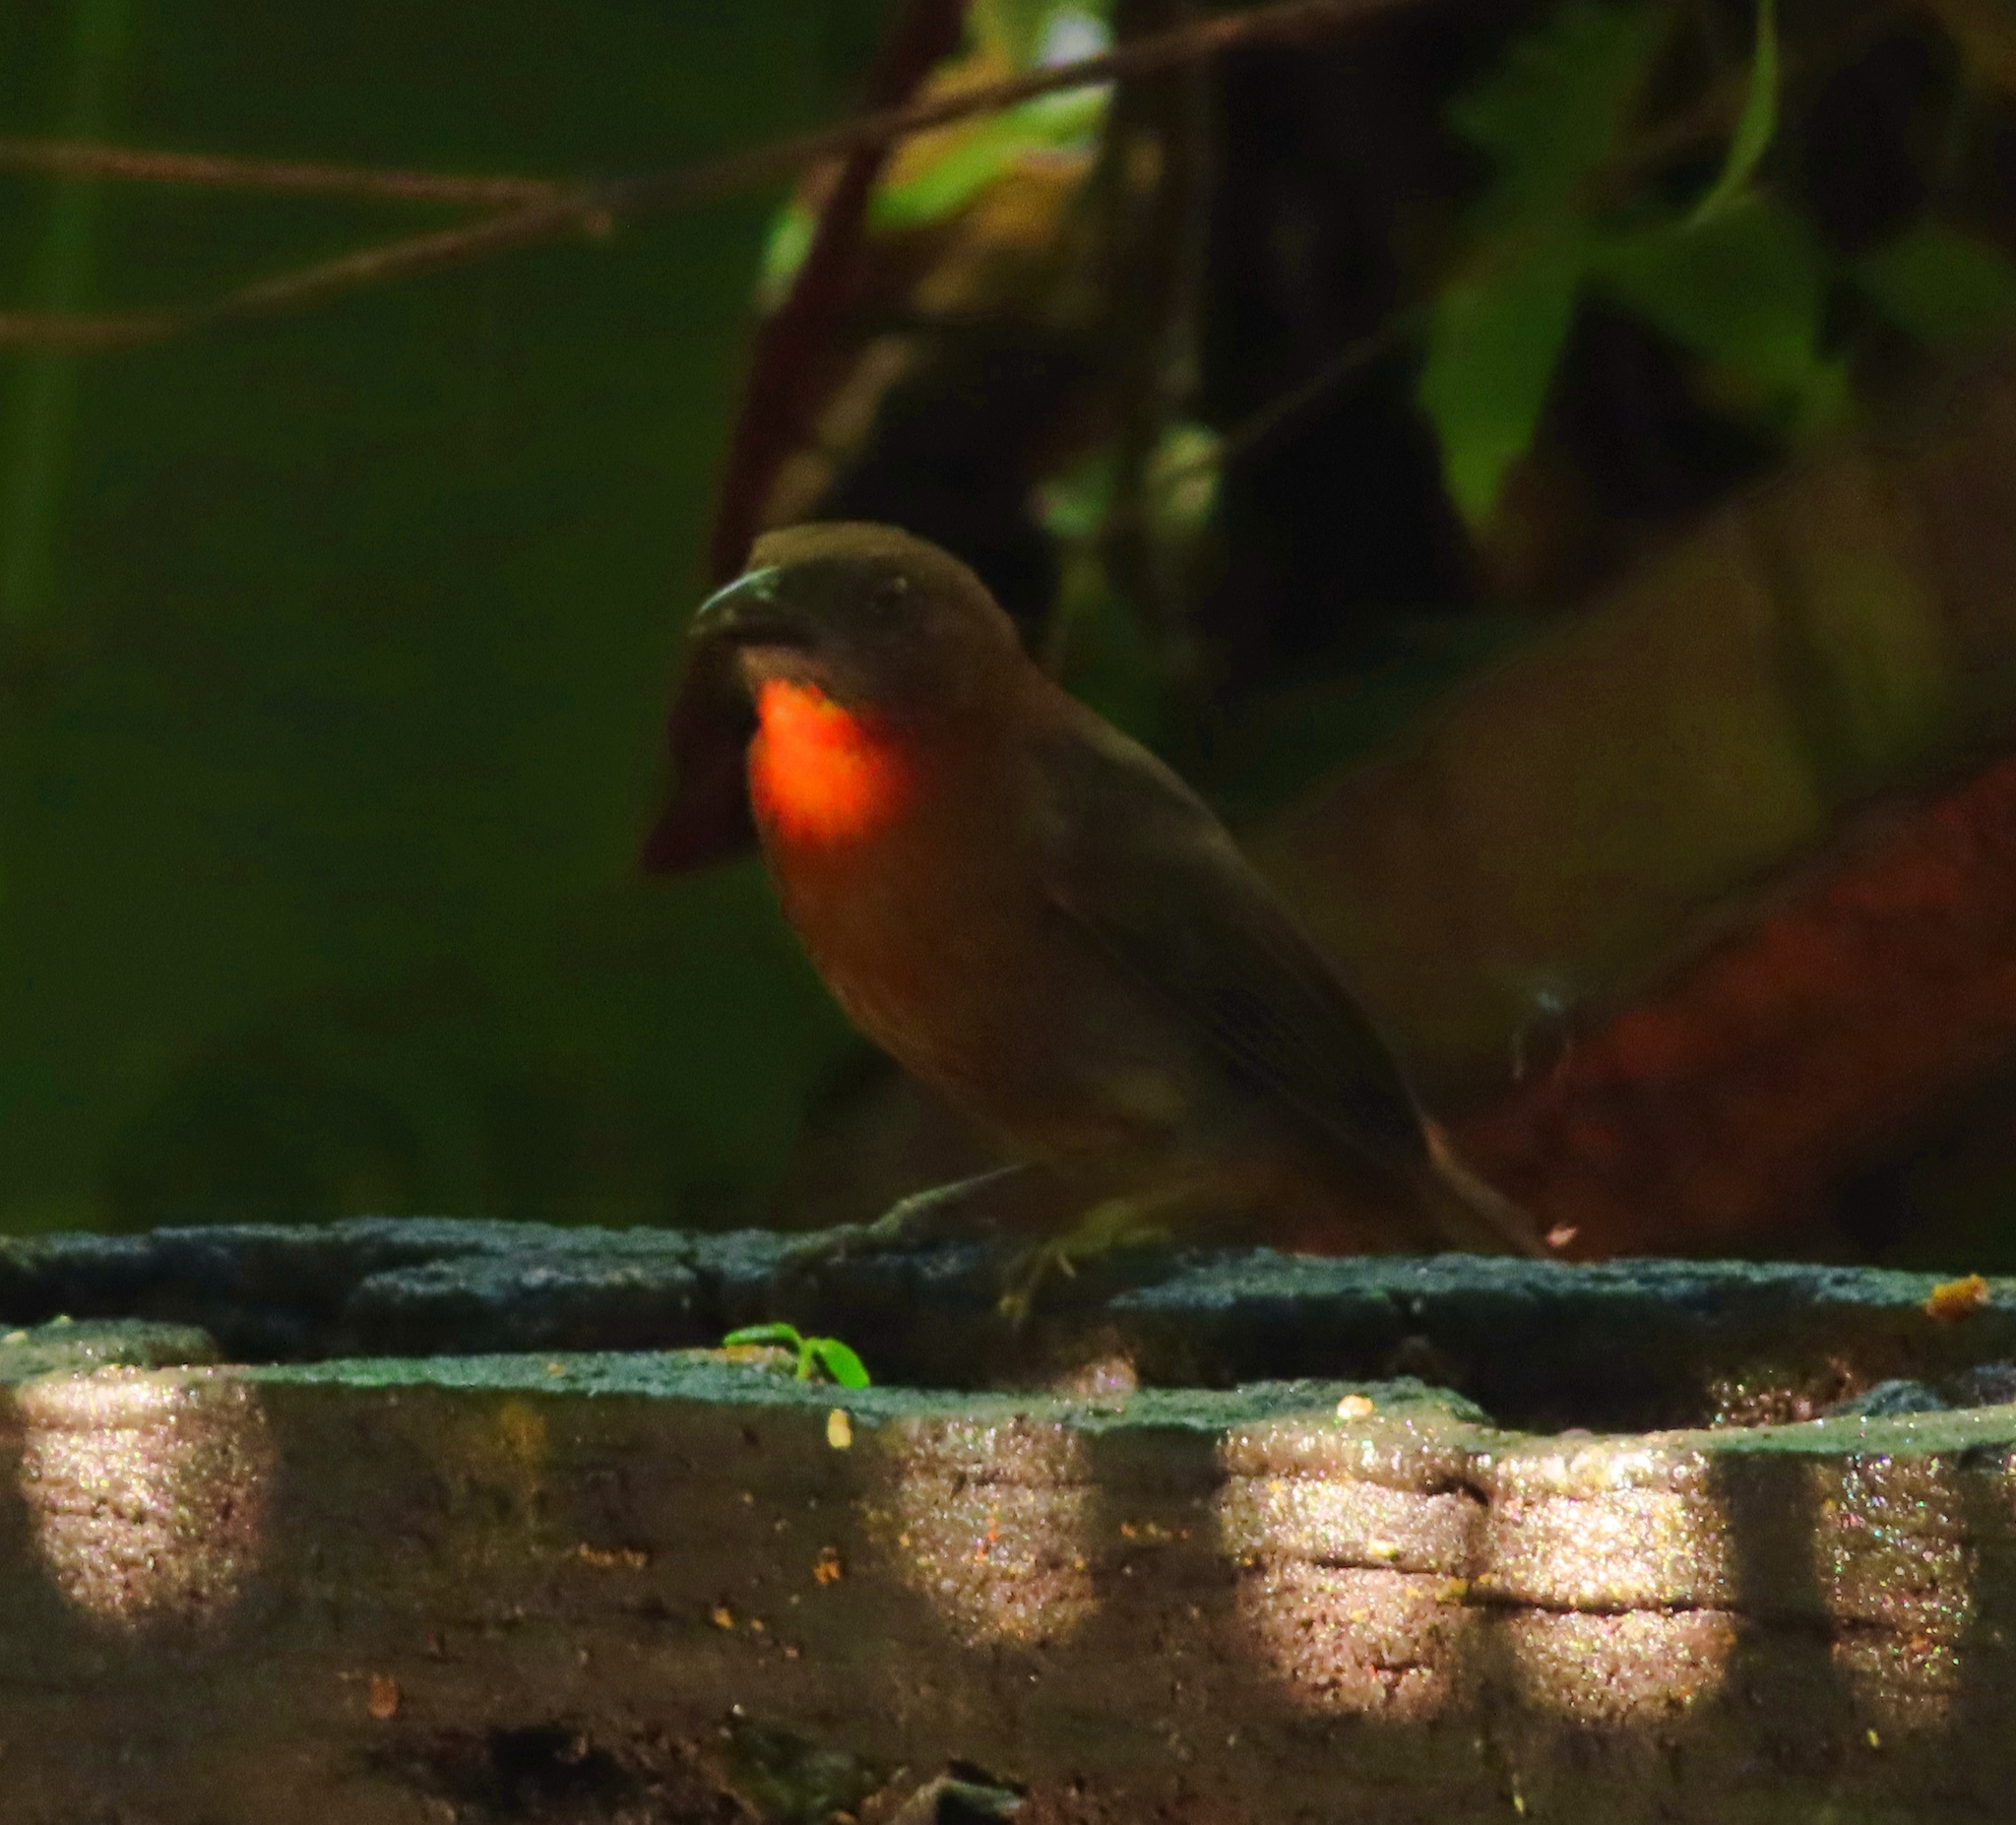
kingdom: Animalia
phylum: Chordata
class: Aves
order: Passeriformes
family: Cardinalidae
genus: Habia
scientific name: Habia fuscicauda
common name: Red-throated ant-tanager
